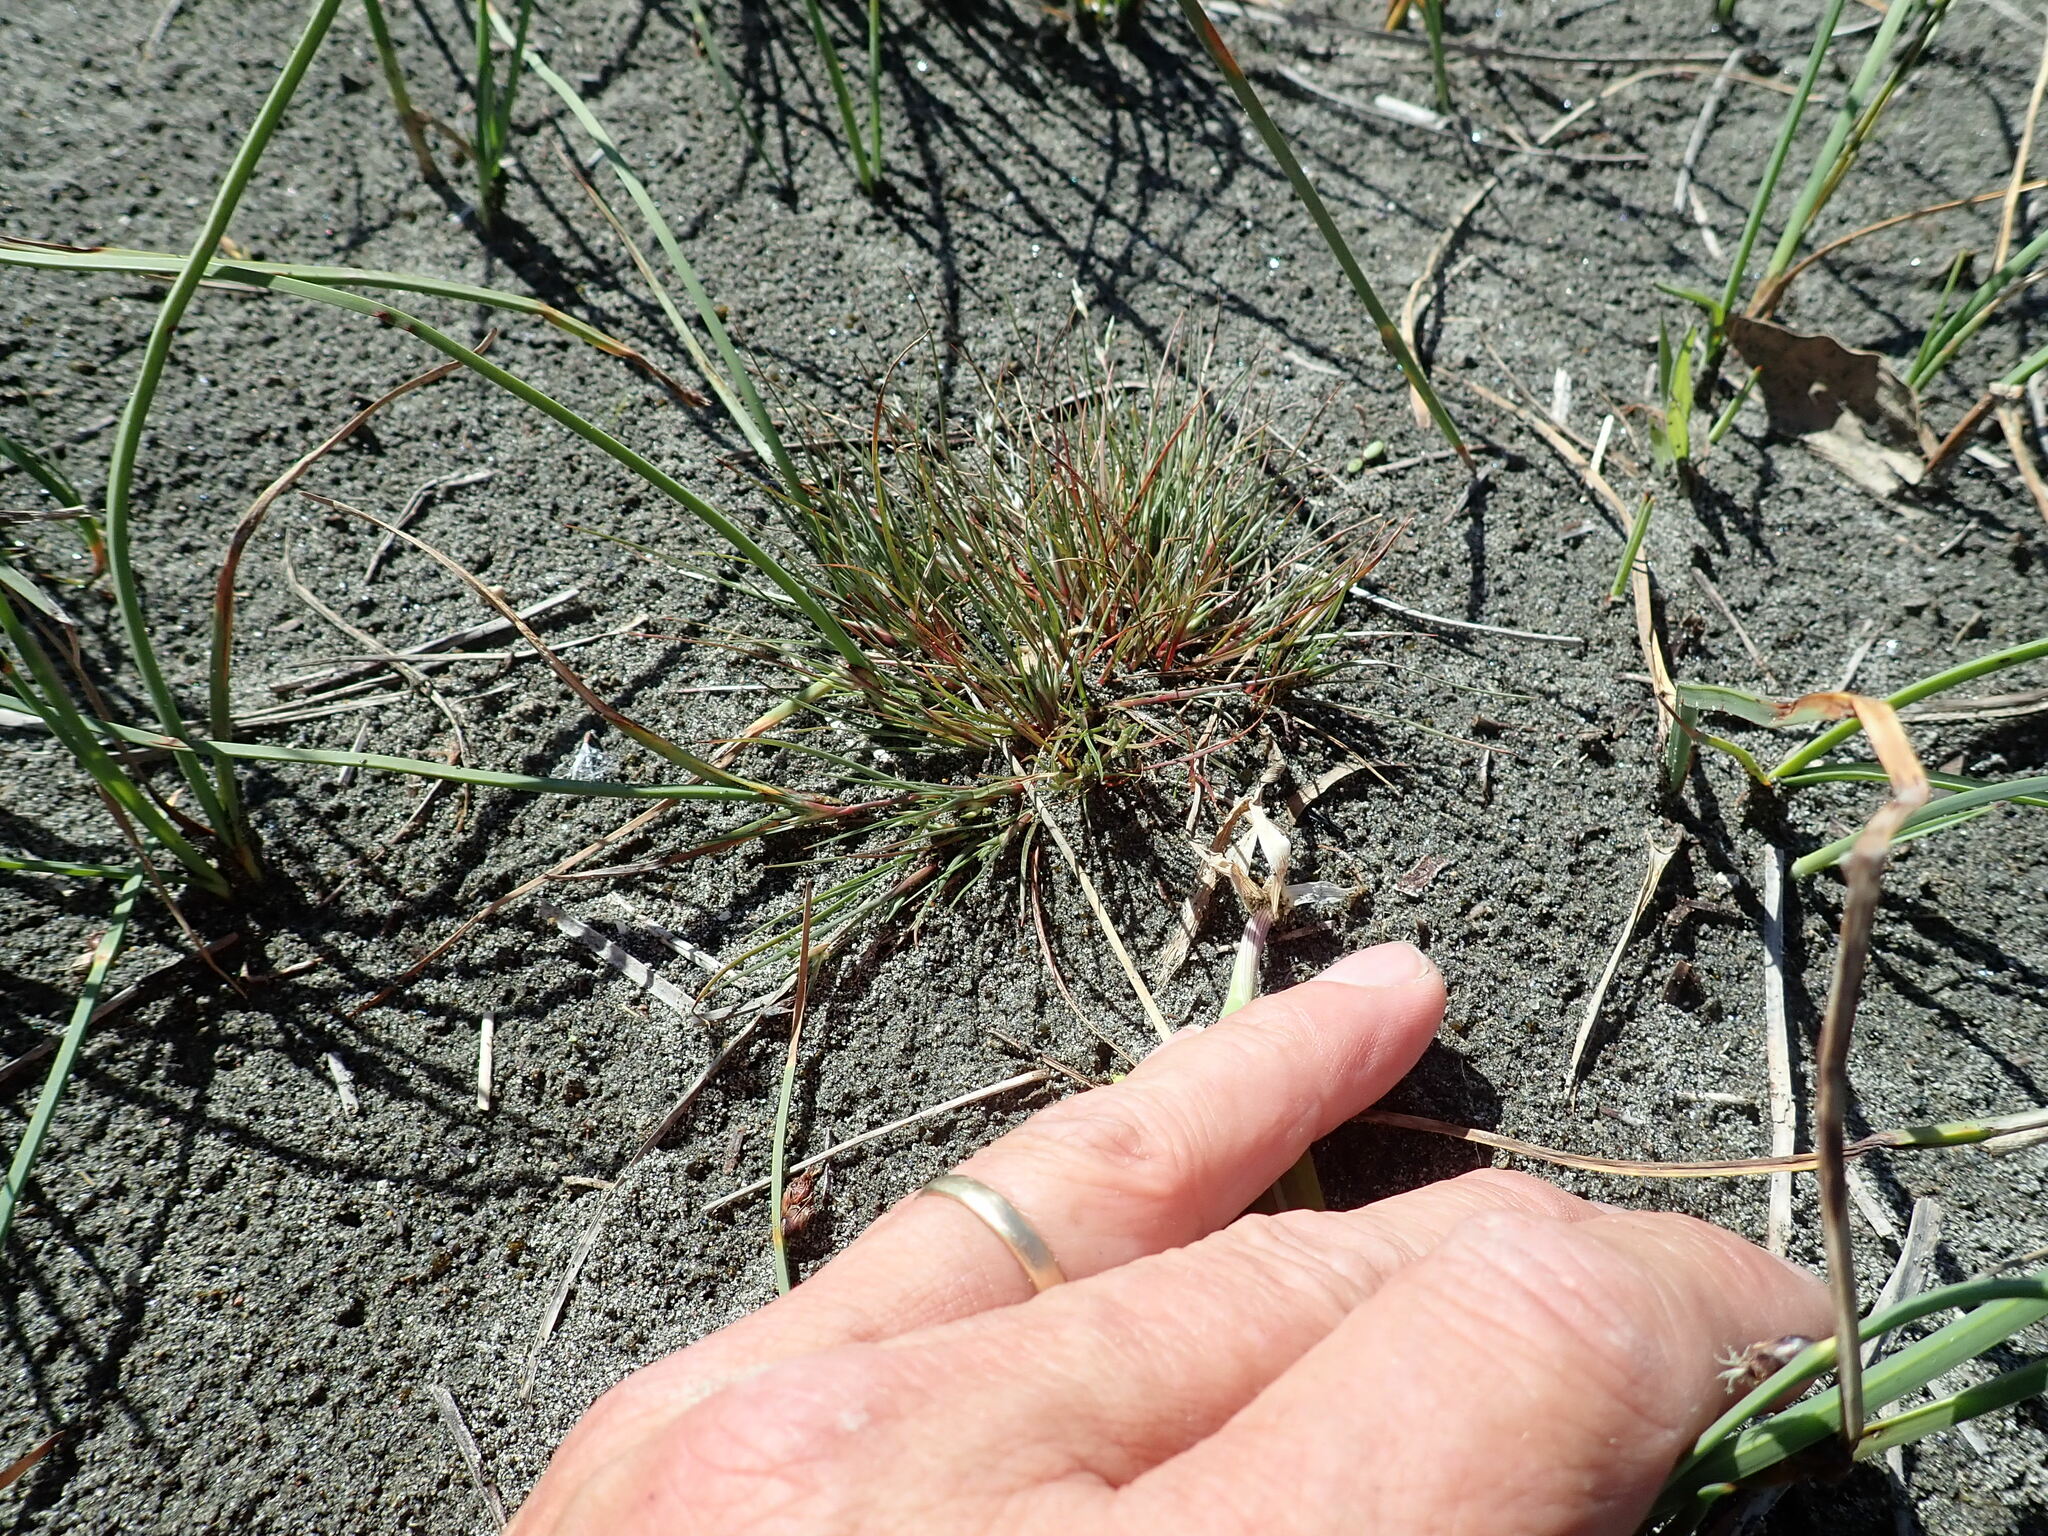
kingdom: Plantae
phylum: Tracheophyta
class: Liliopsida
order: Poales
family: Juncaceae
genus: Juncus
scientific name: Juncus bufonius
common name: Toad rush
